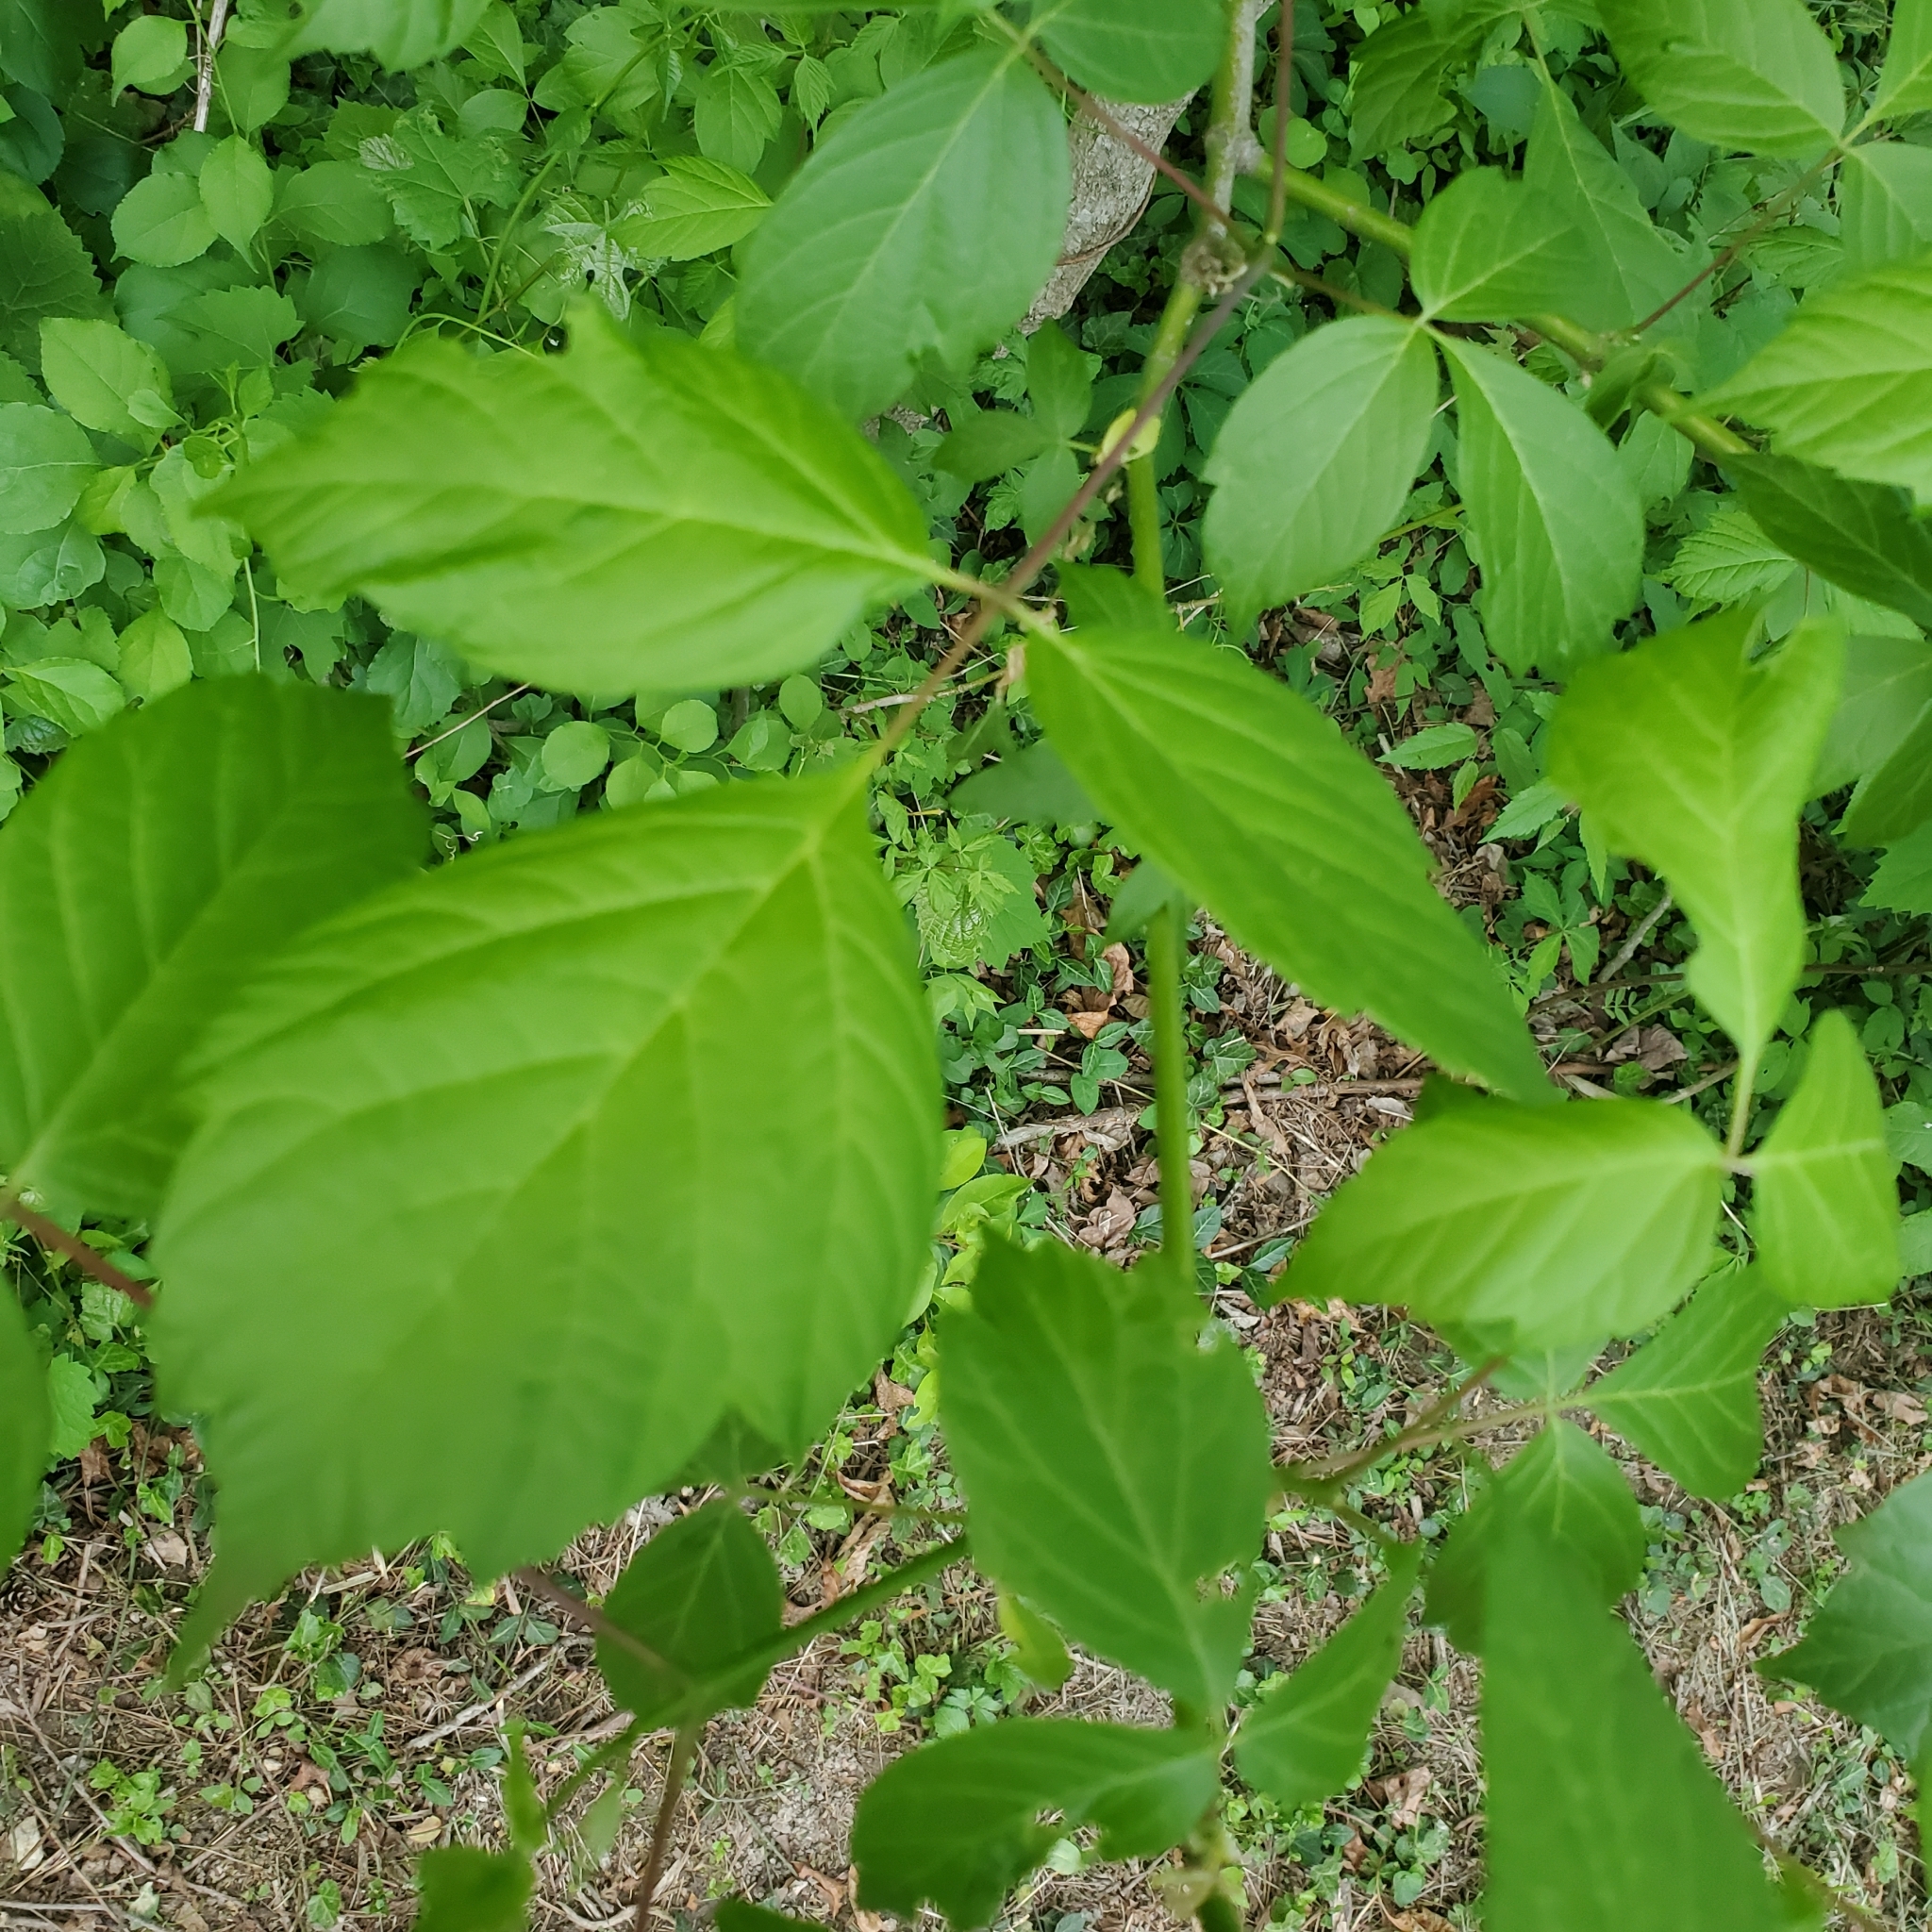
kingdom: Plantae
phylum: Tracheophyta
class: Magnoliopsida
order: Sapindales
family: Sapindaceae
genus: Acer
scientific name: Acer negundo
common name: Ashleaf maple
